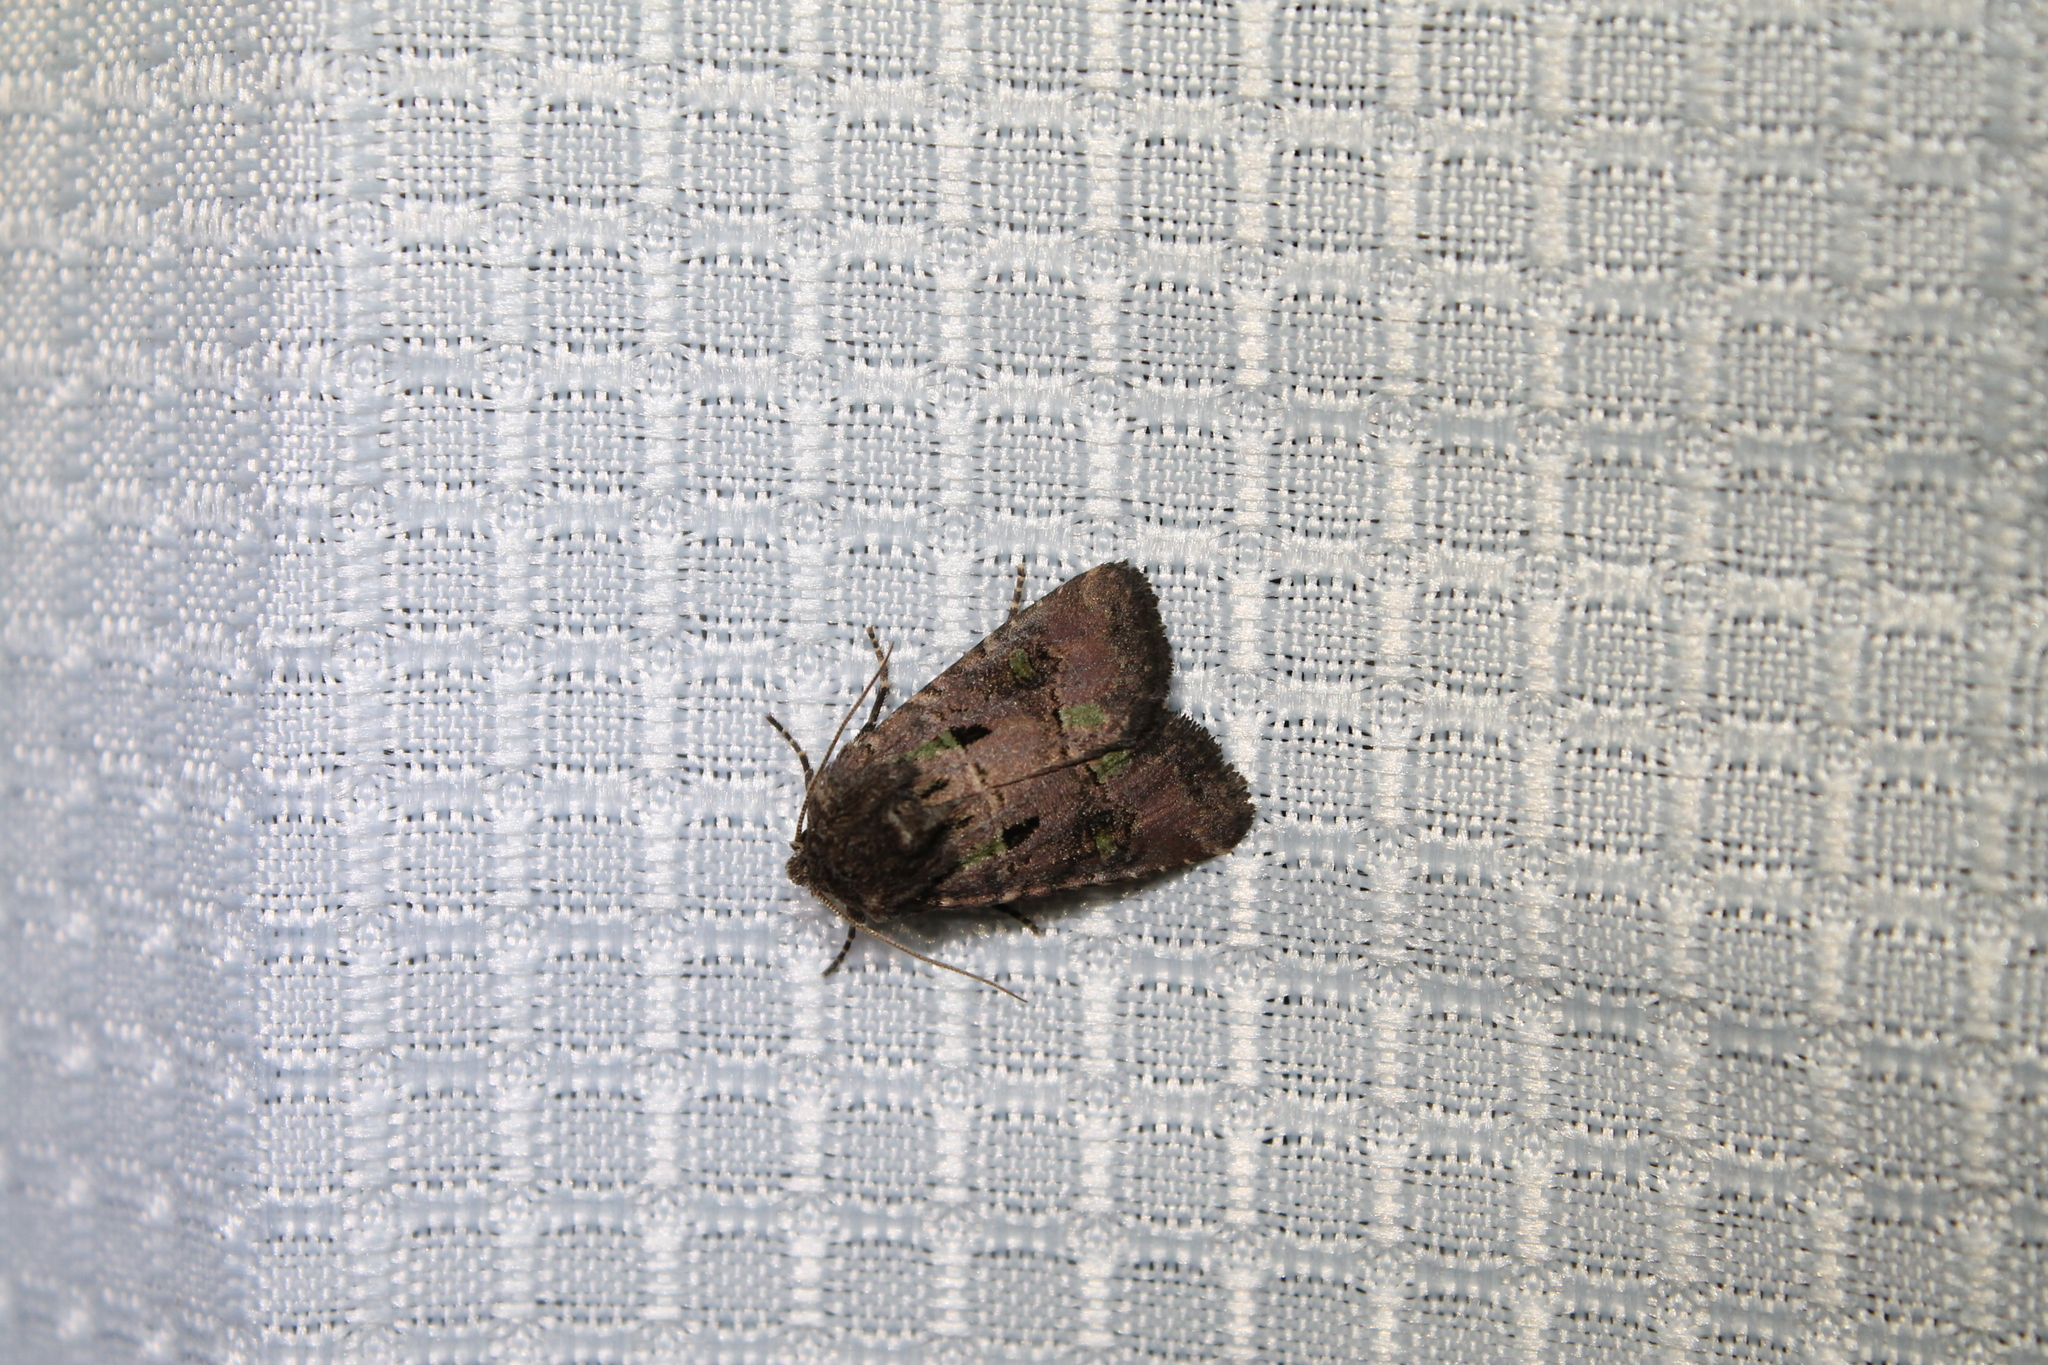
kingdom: Animalia
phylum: Arthropoda
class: Insecta
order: Lepidoptera
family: Noctuidae
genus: Lacinipolia
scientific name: Lacinipolia renigera
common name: Kidney-spotted minor
